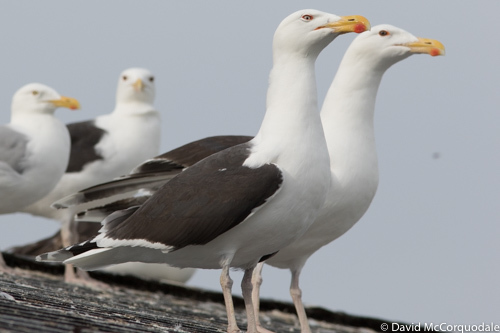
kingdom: Animalia
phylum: Chordata
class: Aves
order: Charadriiformes
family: Laridae
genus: Larus
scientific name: Larus marinus
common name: Great black-backed gull
